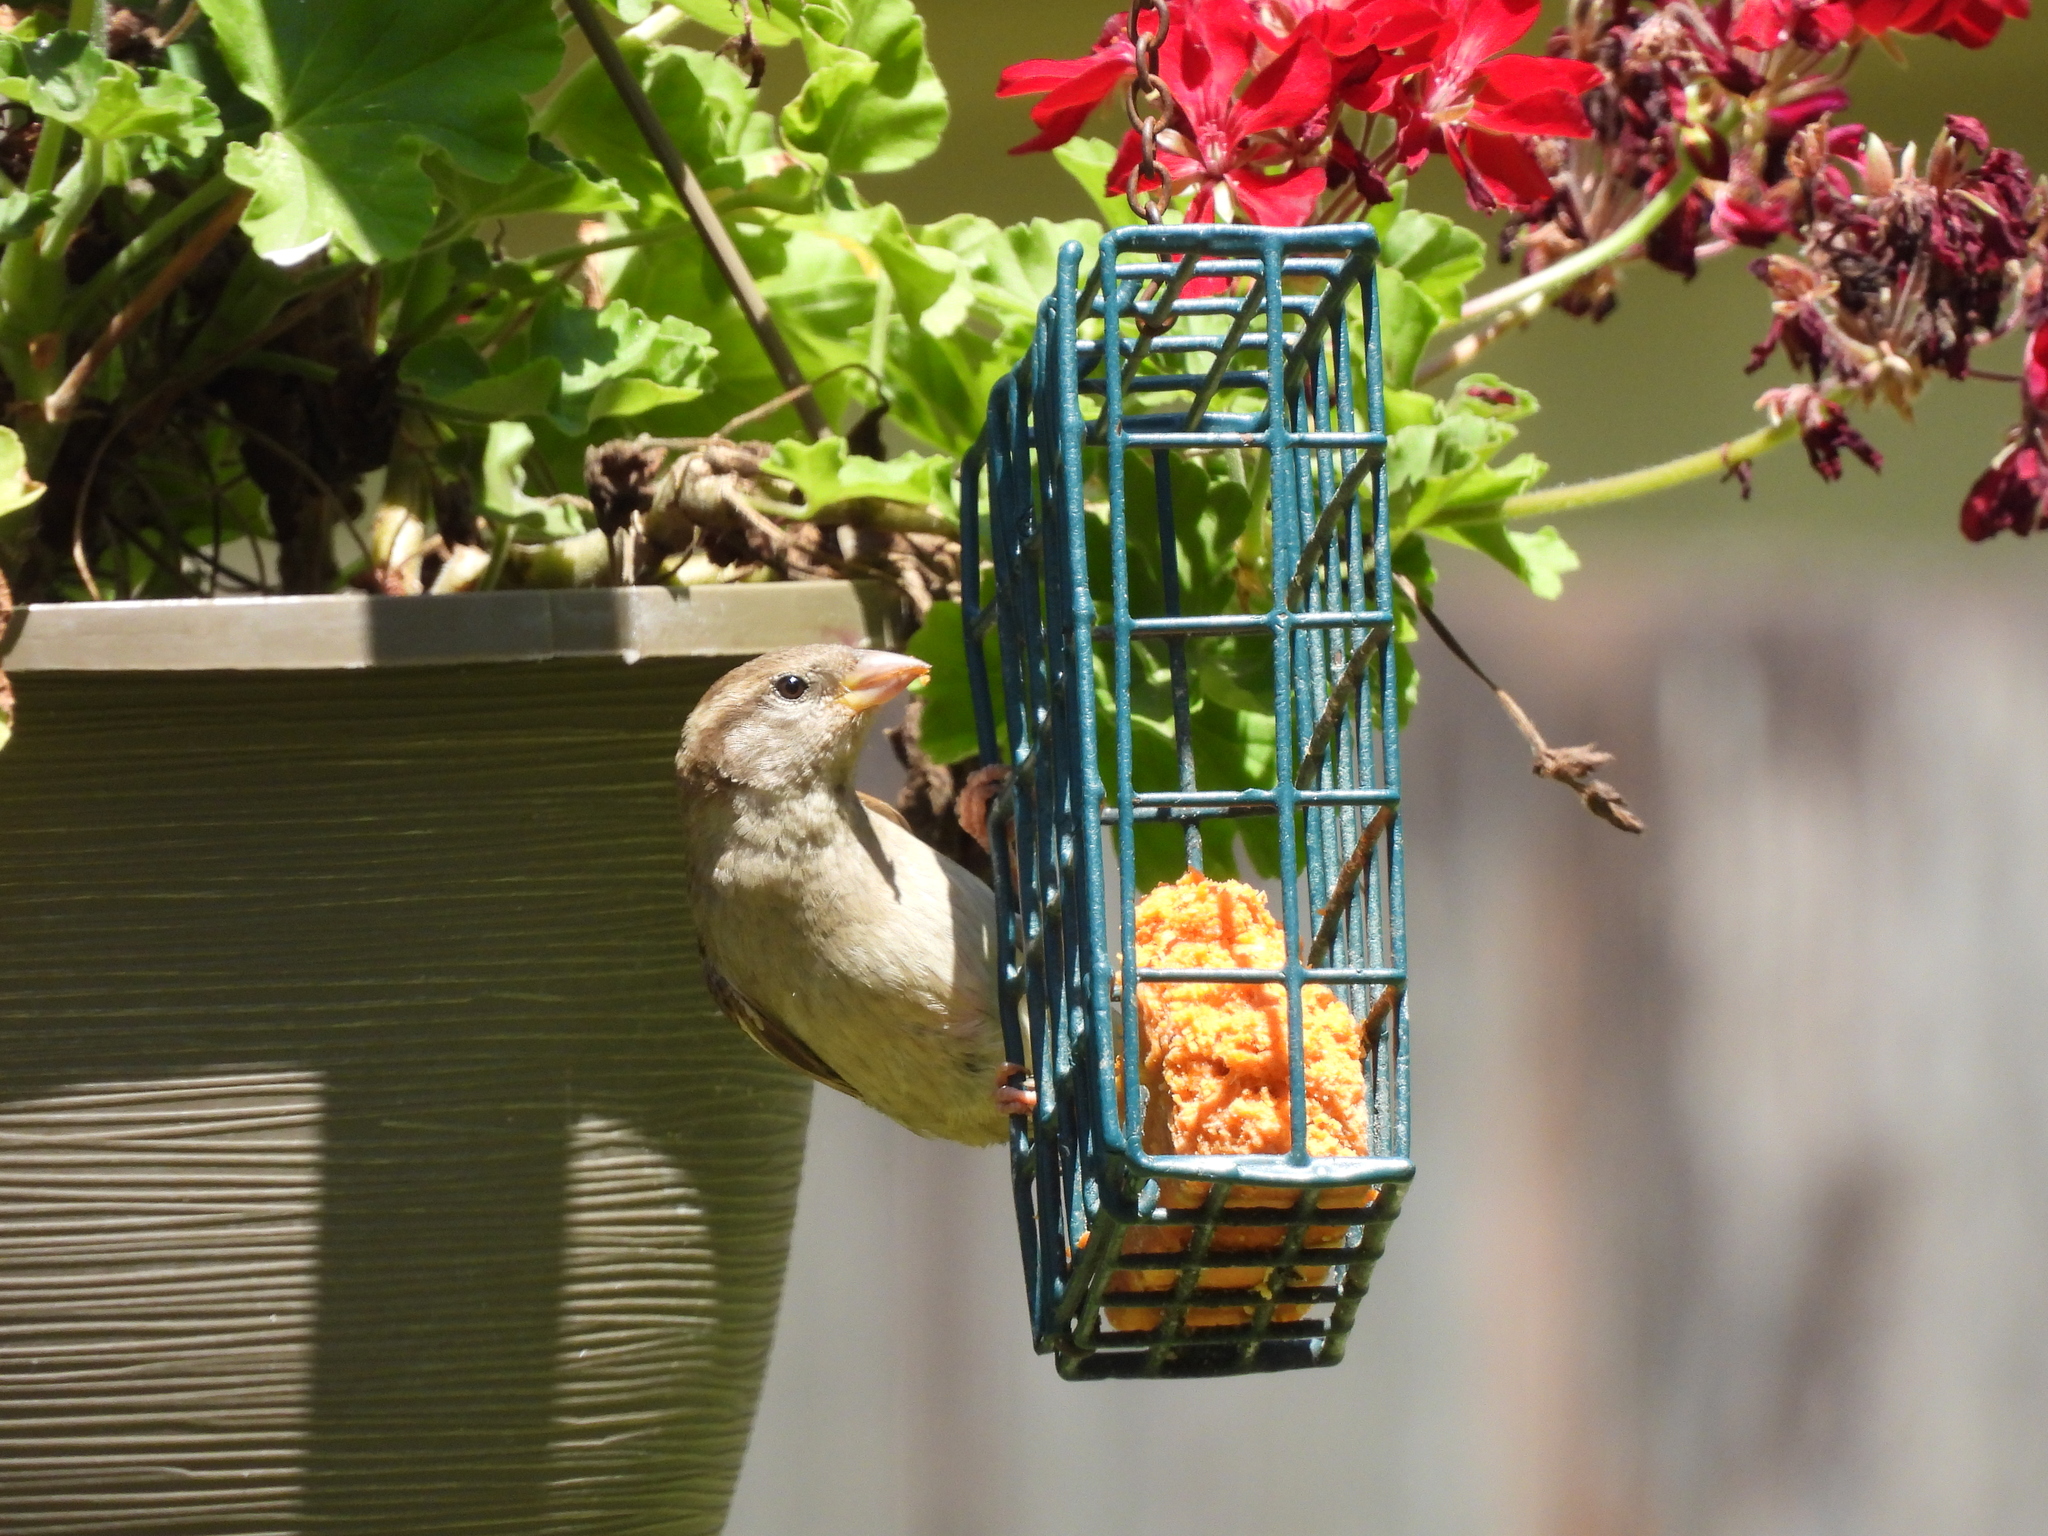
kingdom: Animalia
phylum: Chordata
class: Aves
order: Passeriformes
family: Passeridae
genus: Passer
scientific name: Passer domesticus
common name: House sparrow
